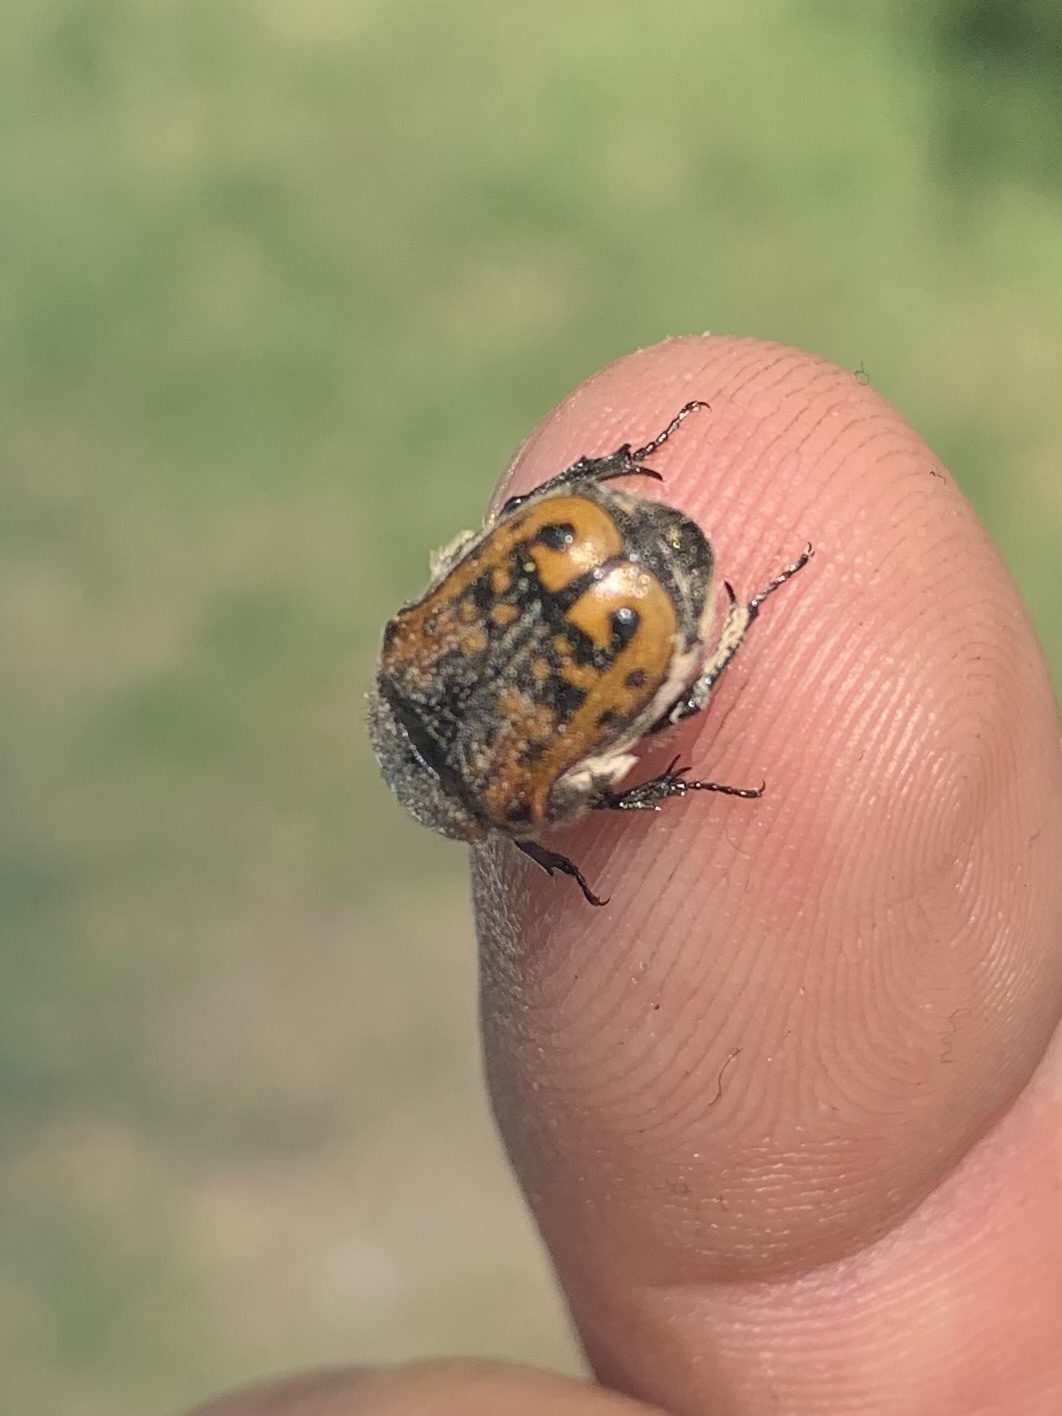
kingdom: Animalia
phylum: Arthropoda
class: Insecta
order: Coleoptera
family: Scarabaeidae
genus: Euphoria
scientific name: Euphoria kernii
